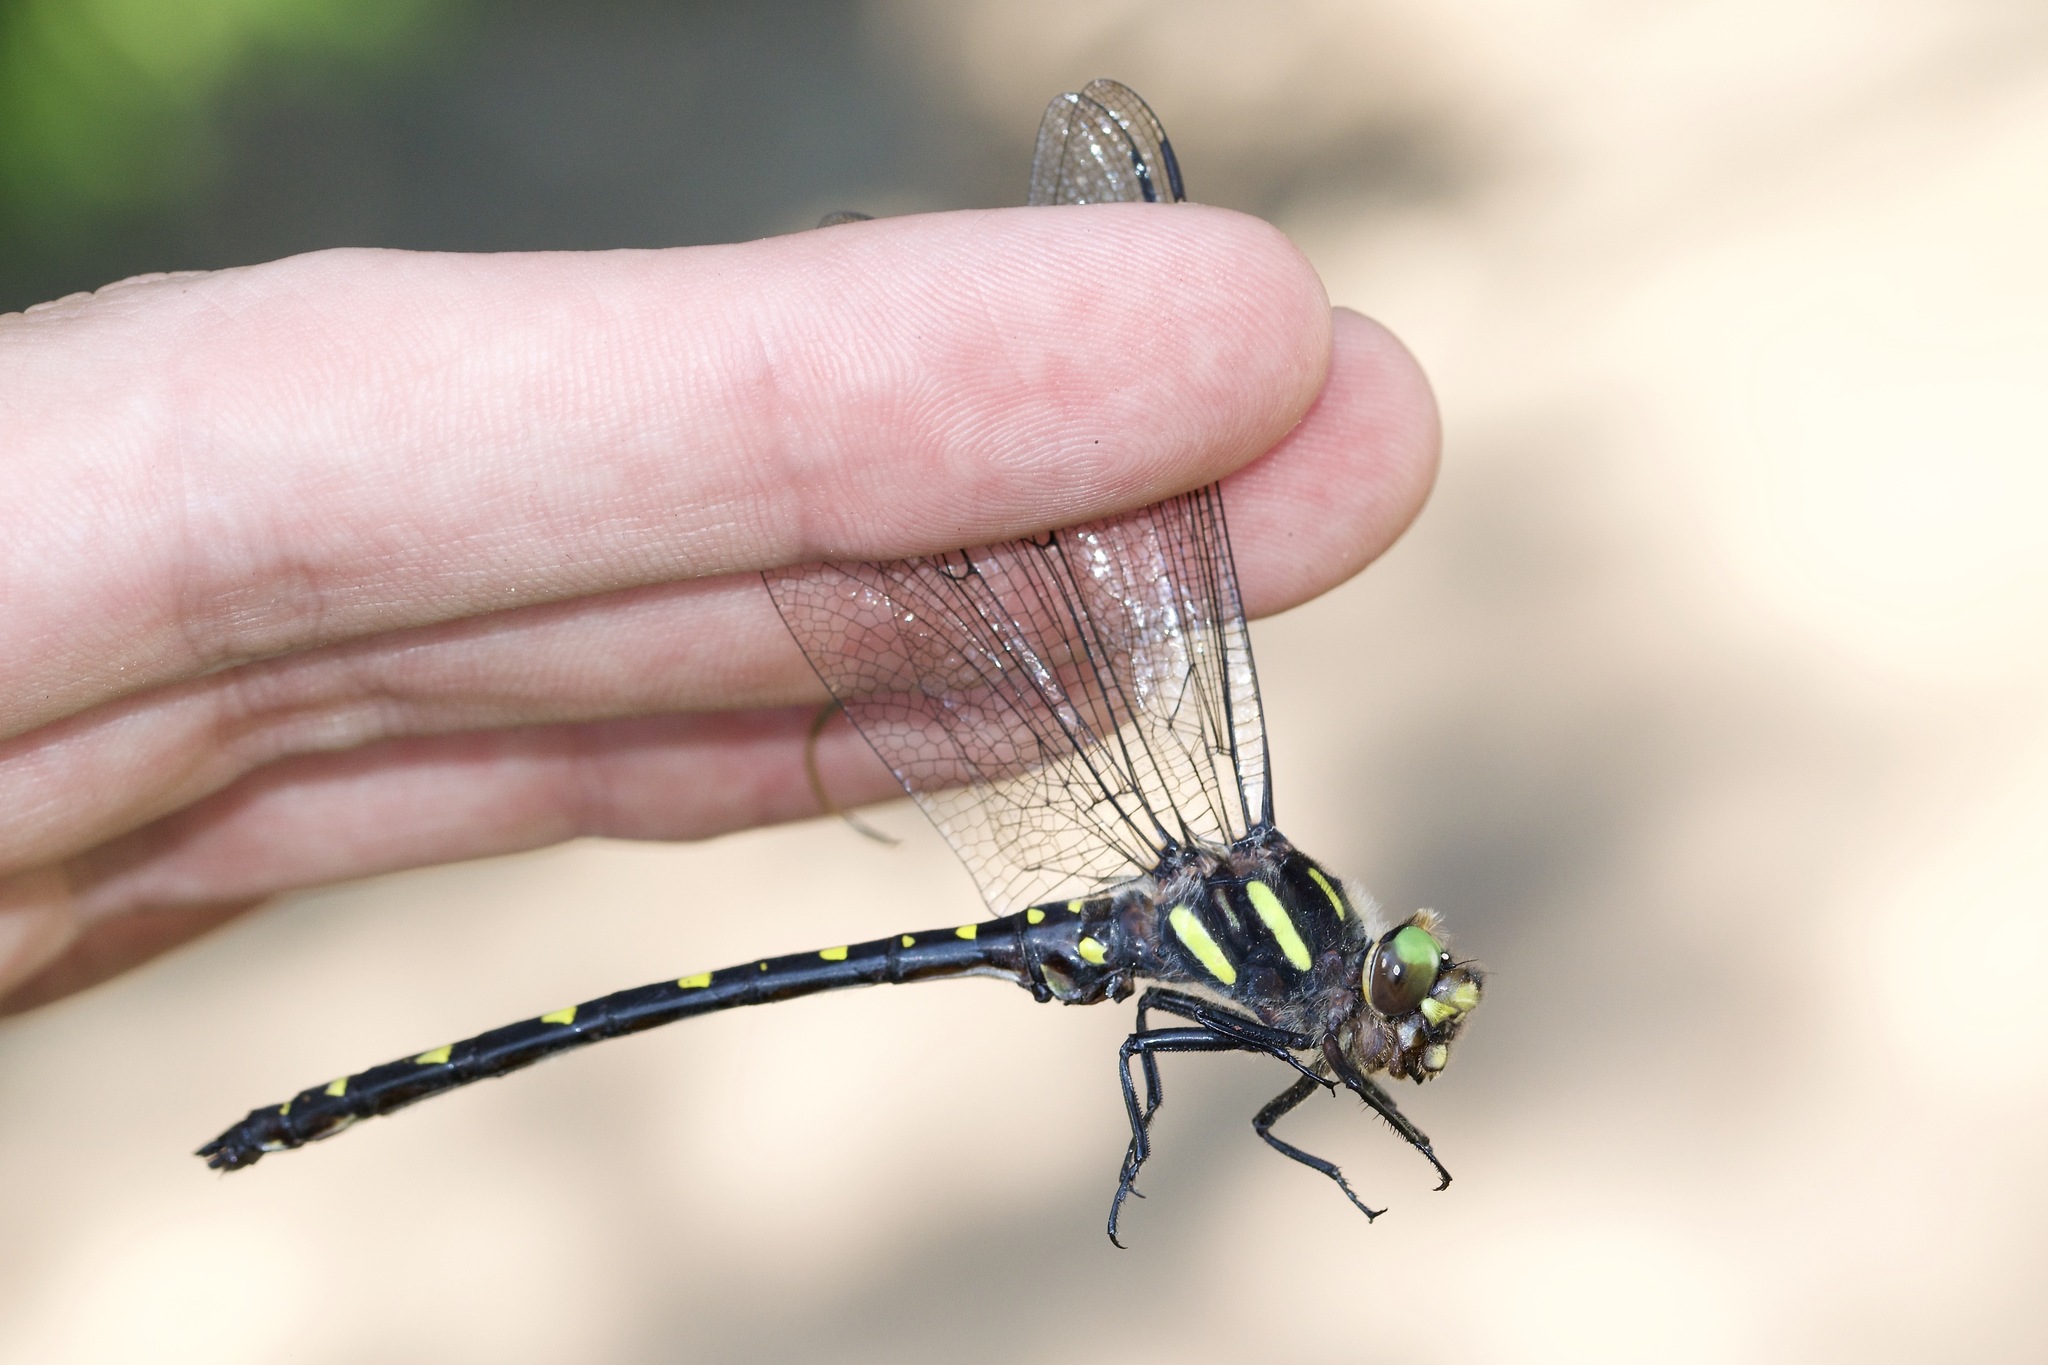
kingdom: Animalia
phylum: Arthropoda
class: Insecta
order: Odonata
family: Cordulegastridae
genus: Cordulegaster
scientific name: Cordulegaster maculata
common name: Twin-spotted spiketail
